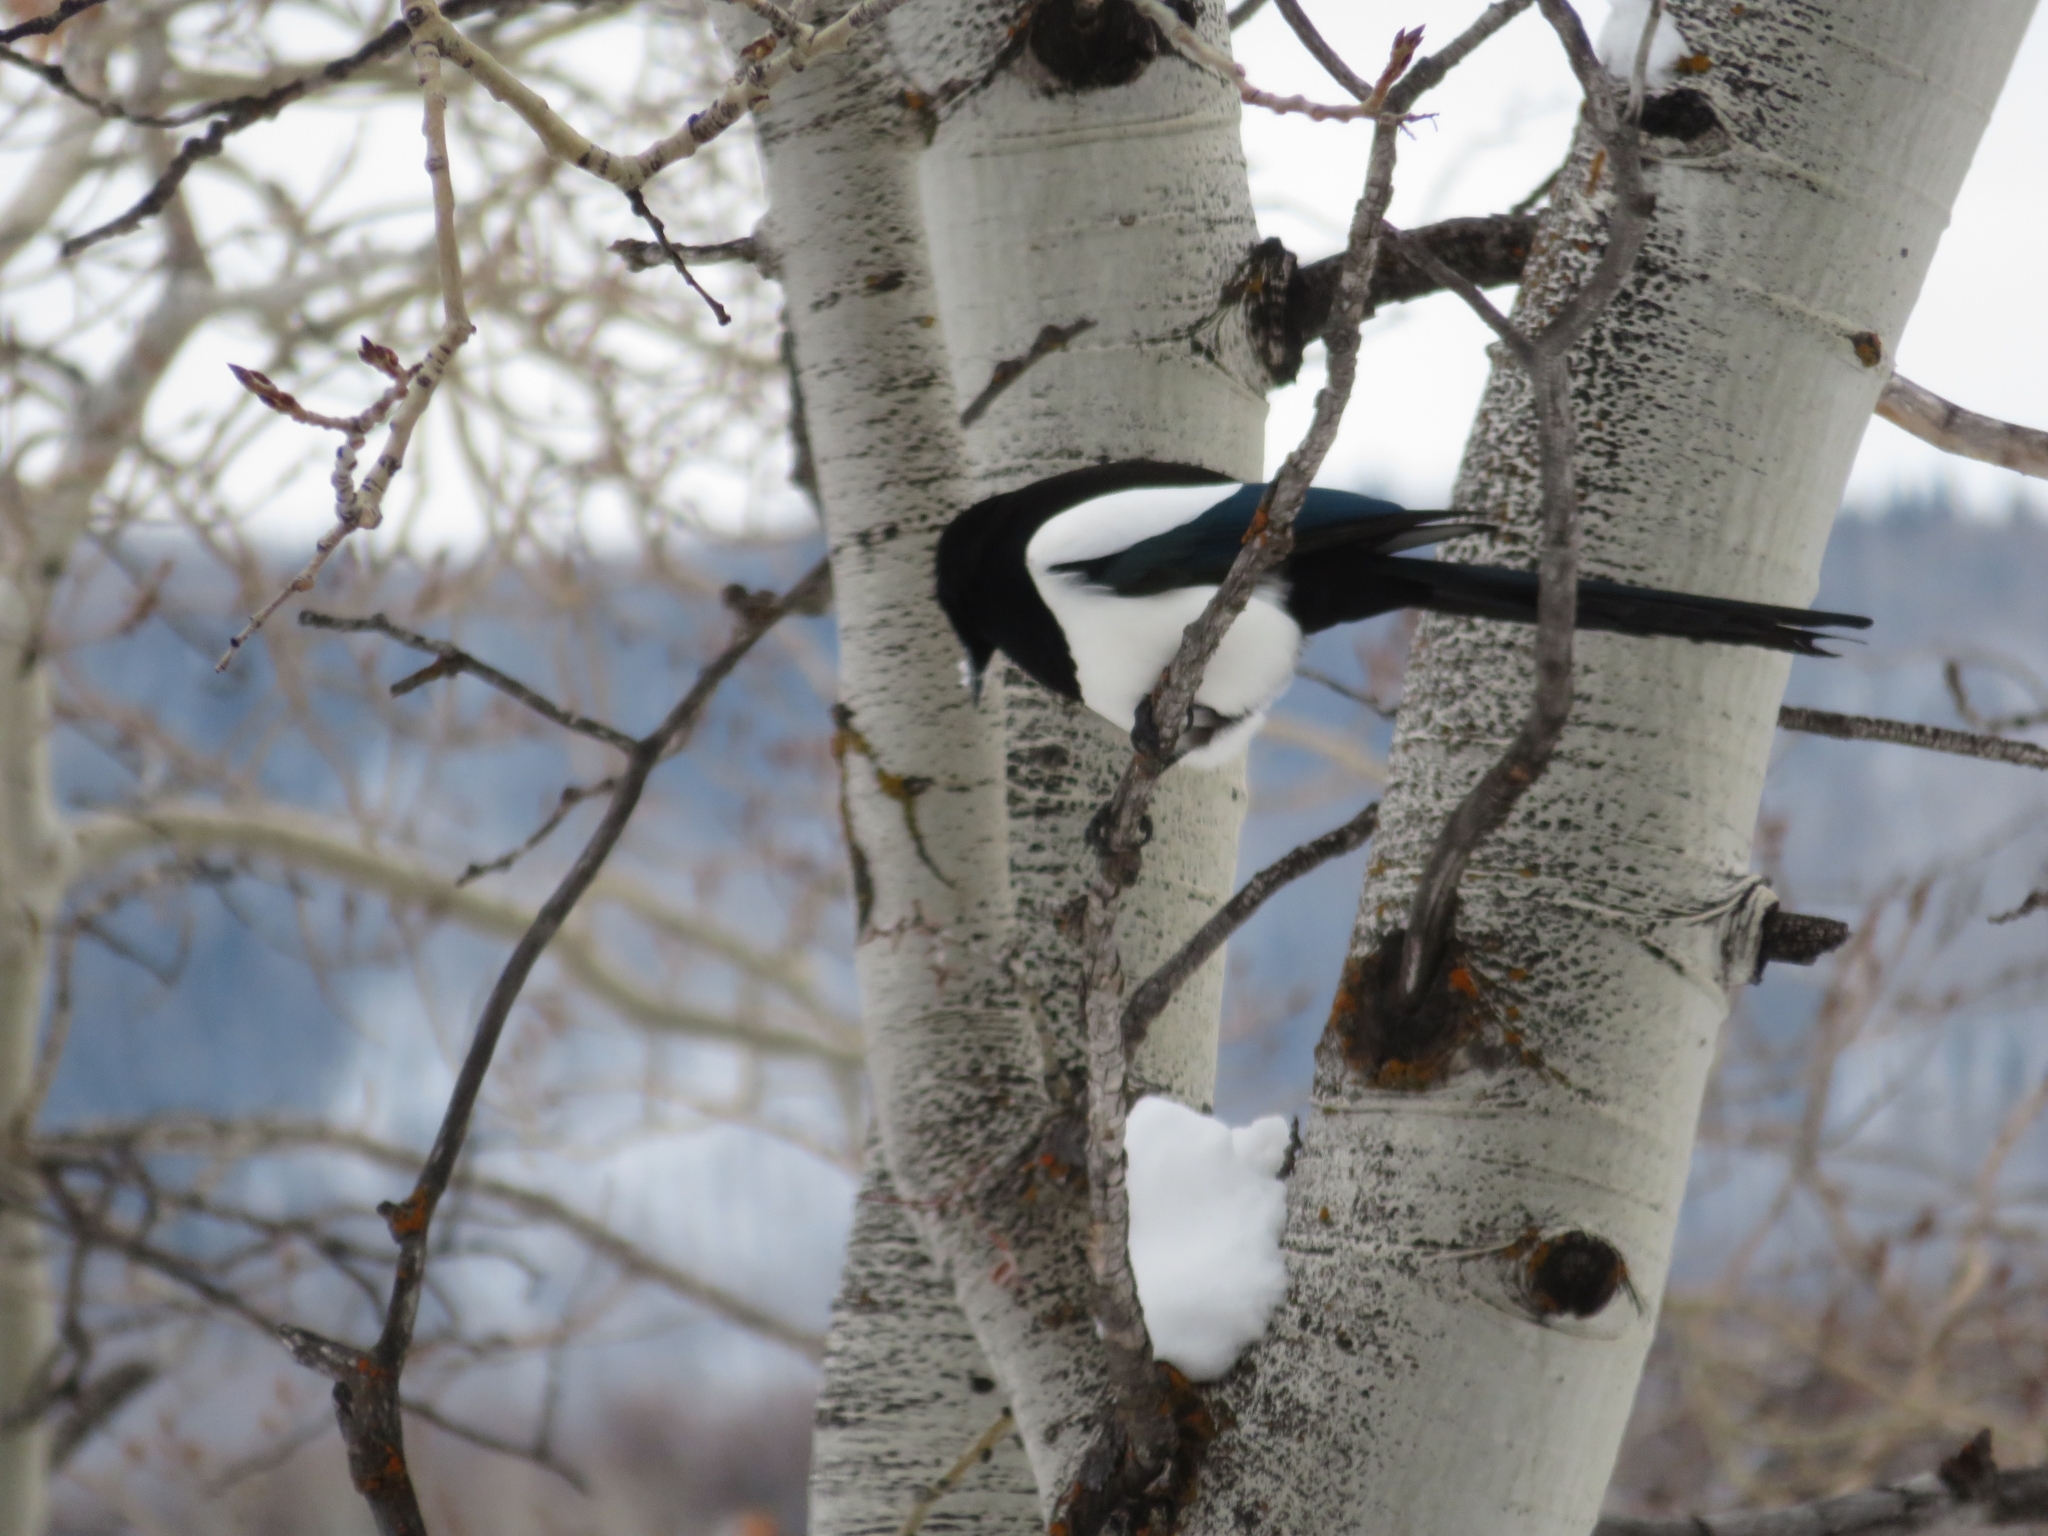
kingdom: Animalia
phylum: Chordata
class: Aves
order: Passeriformes
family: Corvidae
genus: Pica
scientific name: Pica hudsonia
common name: Black-billed magpie
